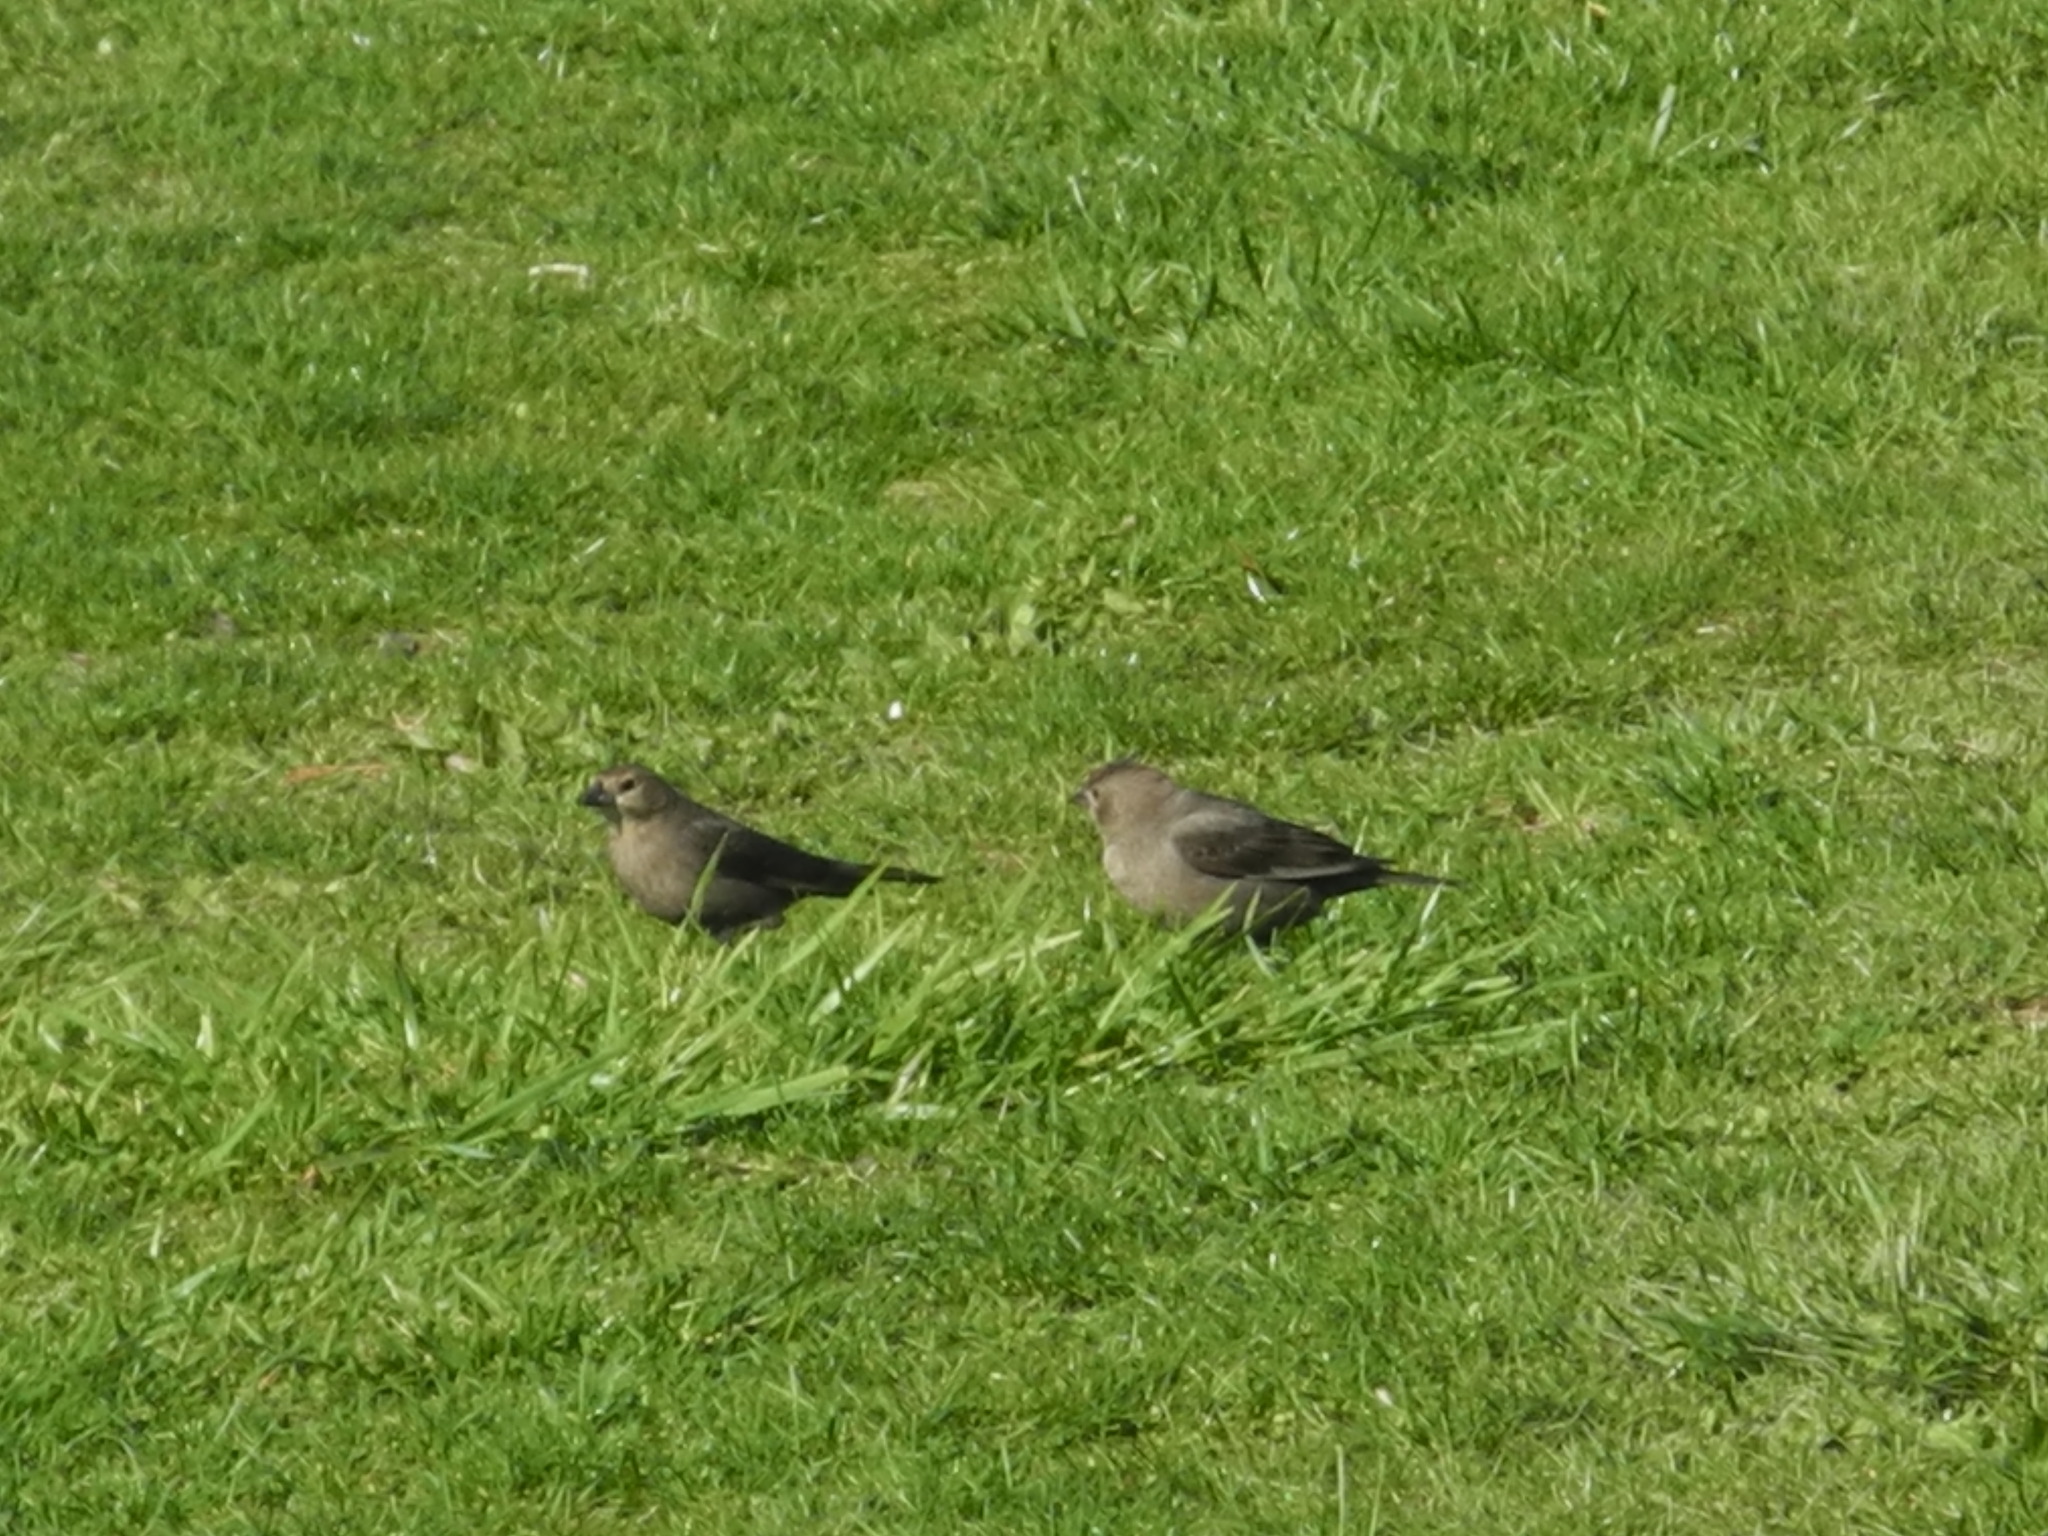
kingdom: Animalia
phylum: Chordata
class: Aves
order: Passeriformes
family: Icteridae
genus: Molothrus
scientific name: Molothrus ater
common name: Brown-headed cowbird
